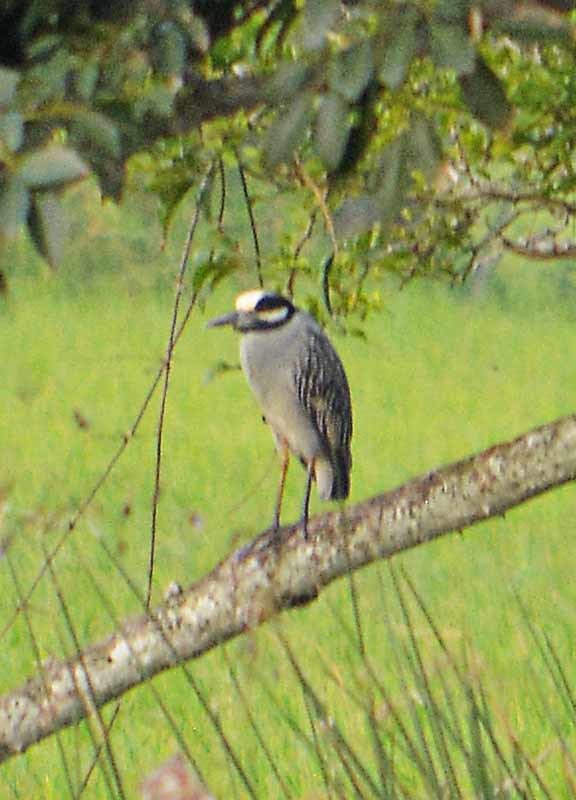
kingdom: Animalia
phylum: Chordata
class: Aves
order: Pelecaniformes
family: Ardeidae
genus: Nyctanassa
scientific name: Nyctanassa violacea
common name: Yellow-crowned night heron
